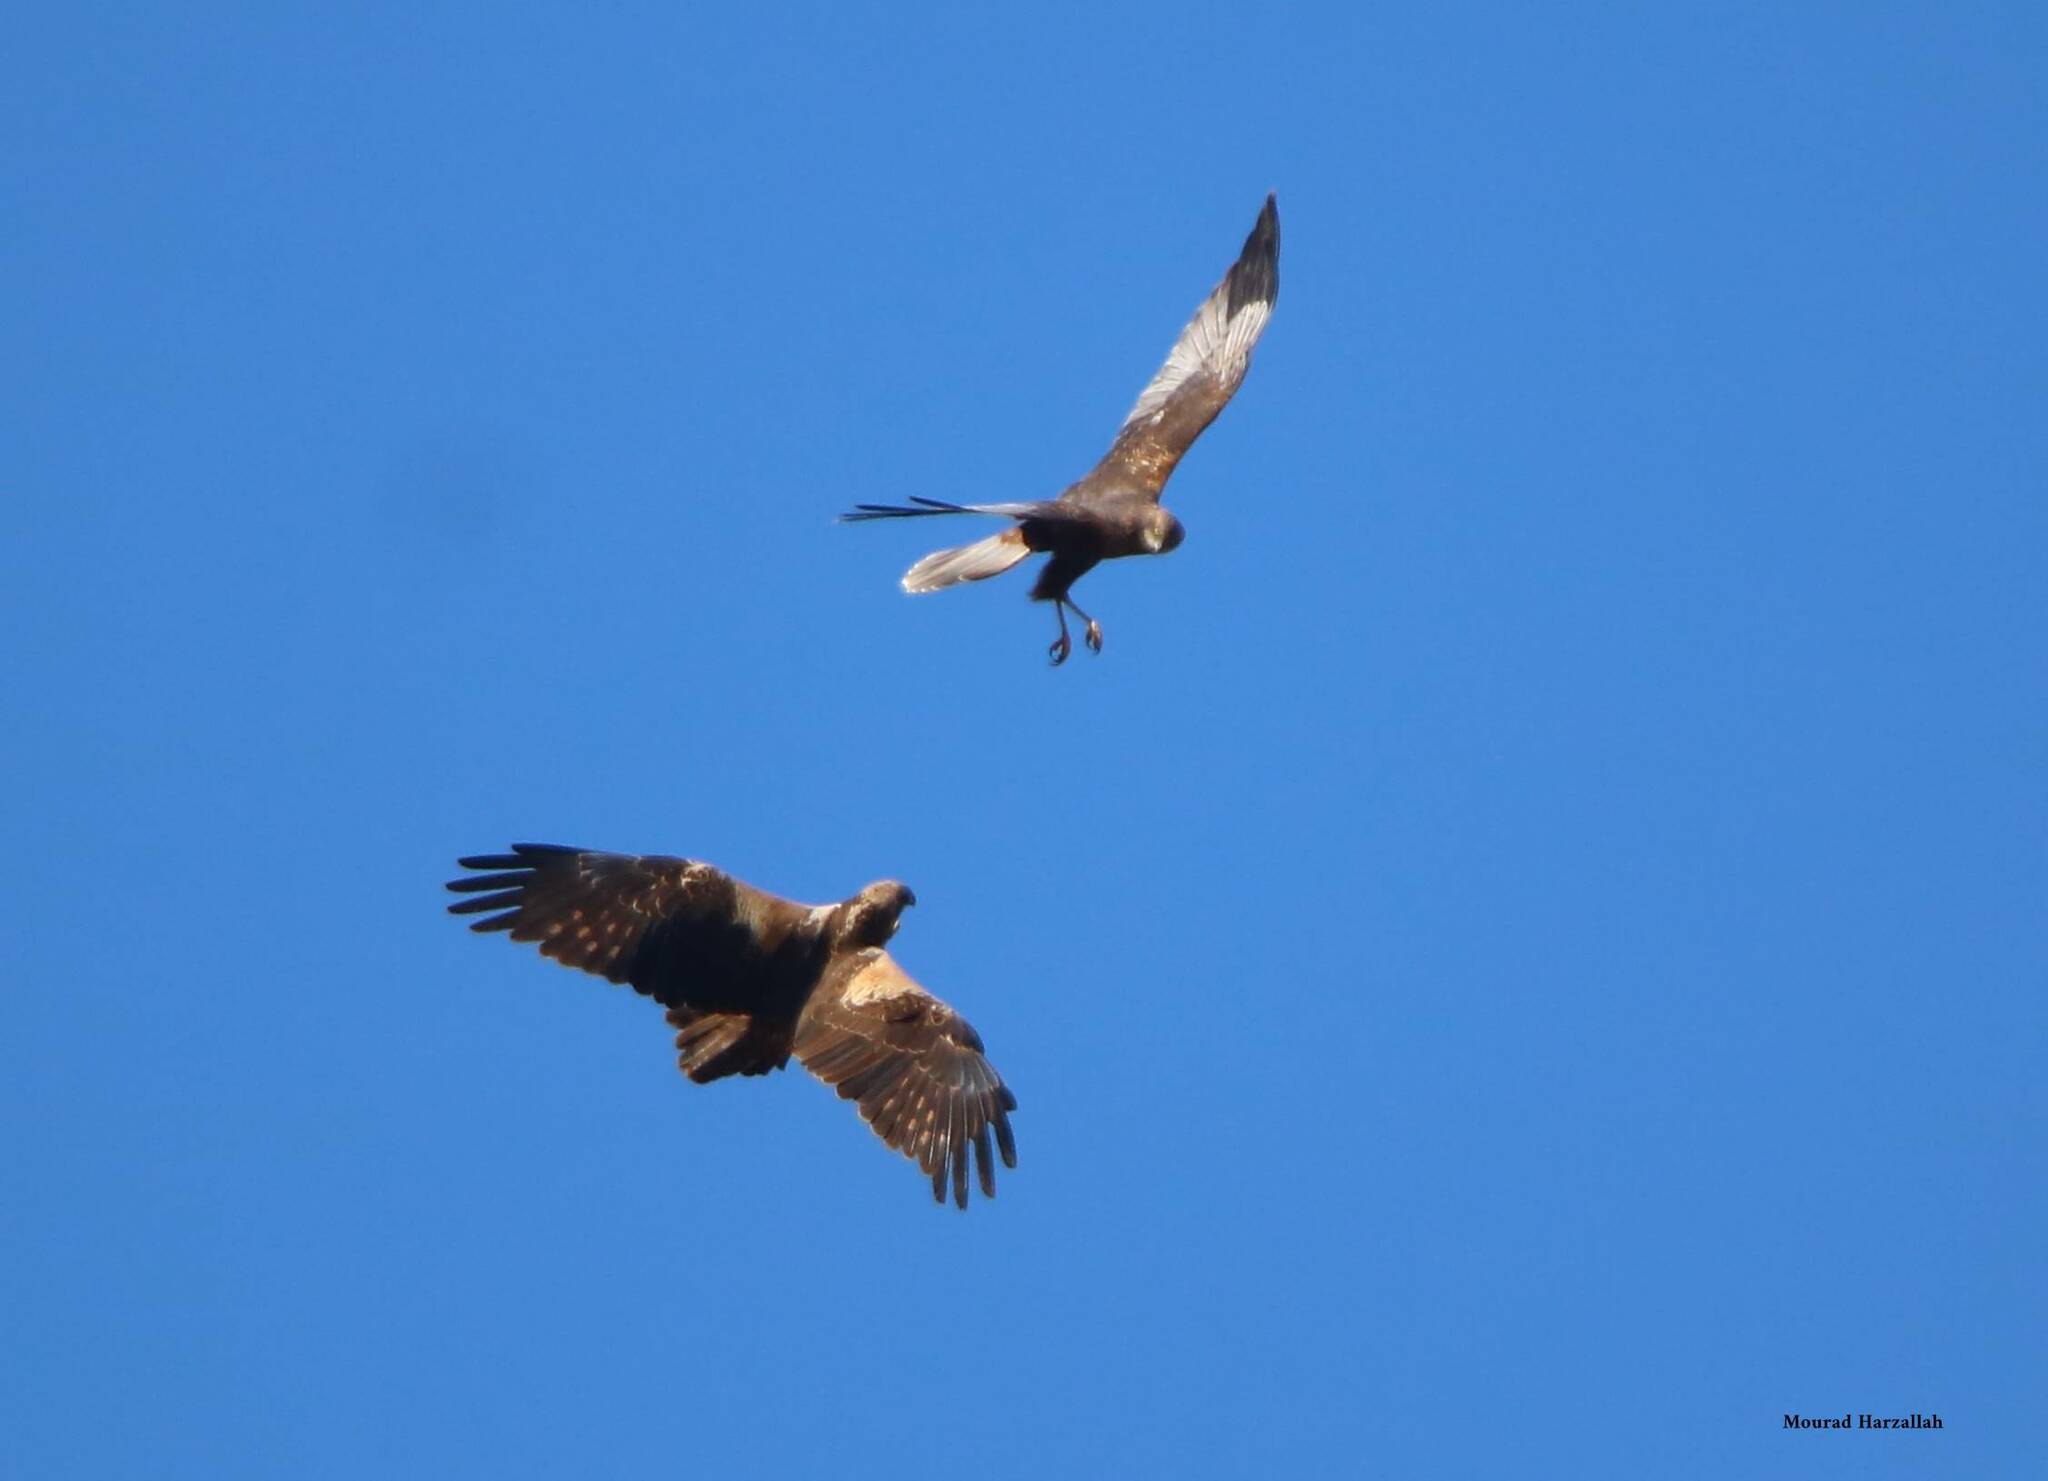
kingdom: Animalia
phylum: Chordata
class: Aves
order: Accipitriformes
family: Accipitridae
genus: Circus
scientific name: Circus aeruginosus
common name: Western marsh harrier
